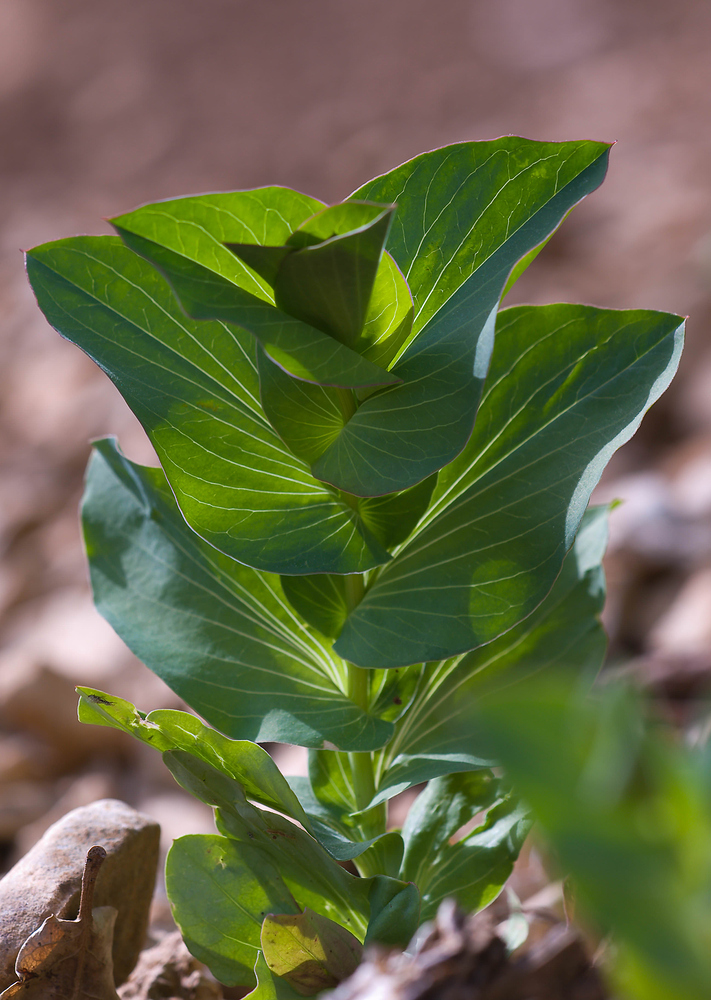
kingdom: Plantae
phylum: Tracheophyta
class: Magnoliopsida
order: Apiales
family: Apiaceae
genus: Bupleurum
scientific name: Bupleurum rotundifolium
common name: Thorow-wax
